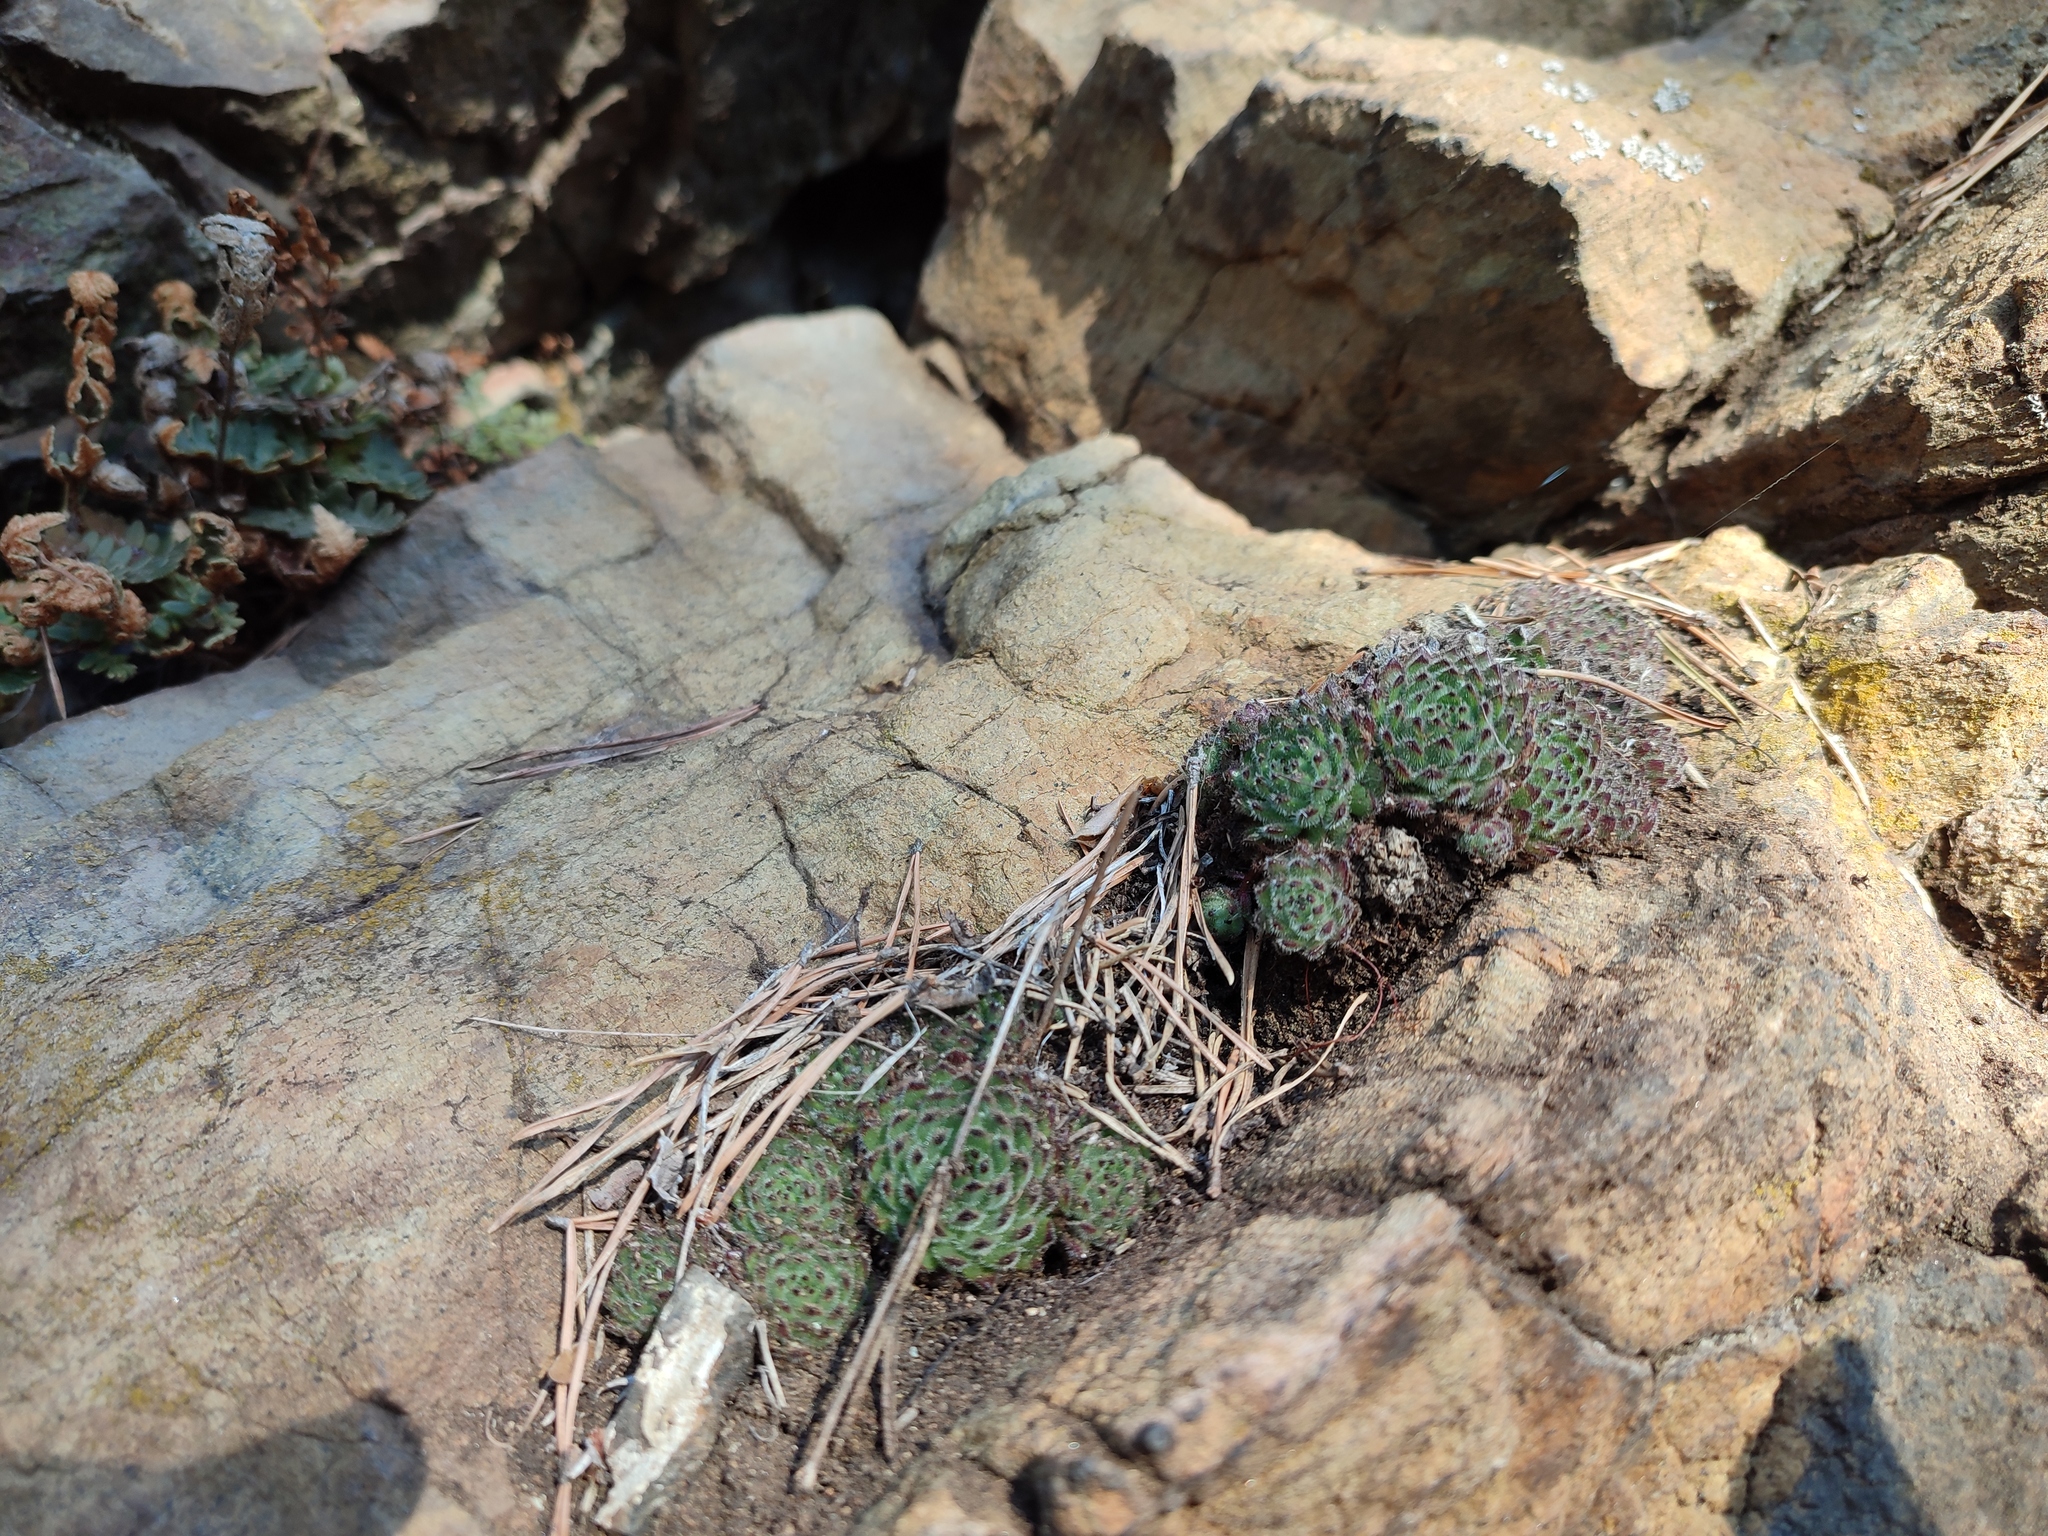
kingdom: Plantae
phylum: Tracheophyta
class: Magnoliopsida
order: Saxifragales
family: Crassulaceae
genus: Sempervivum
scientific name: Sempervivum pittonii
